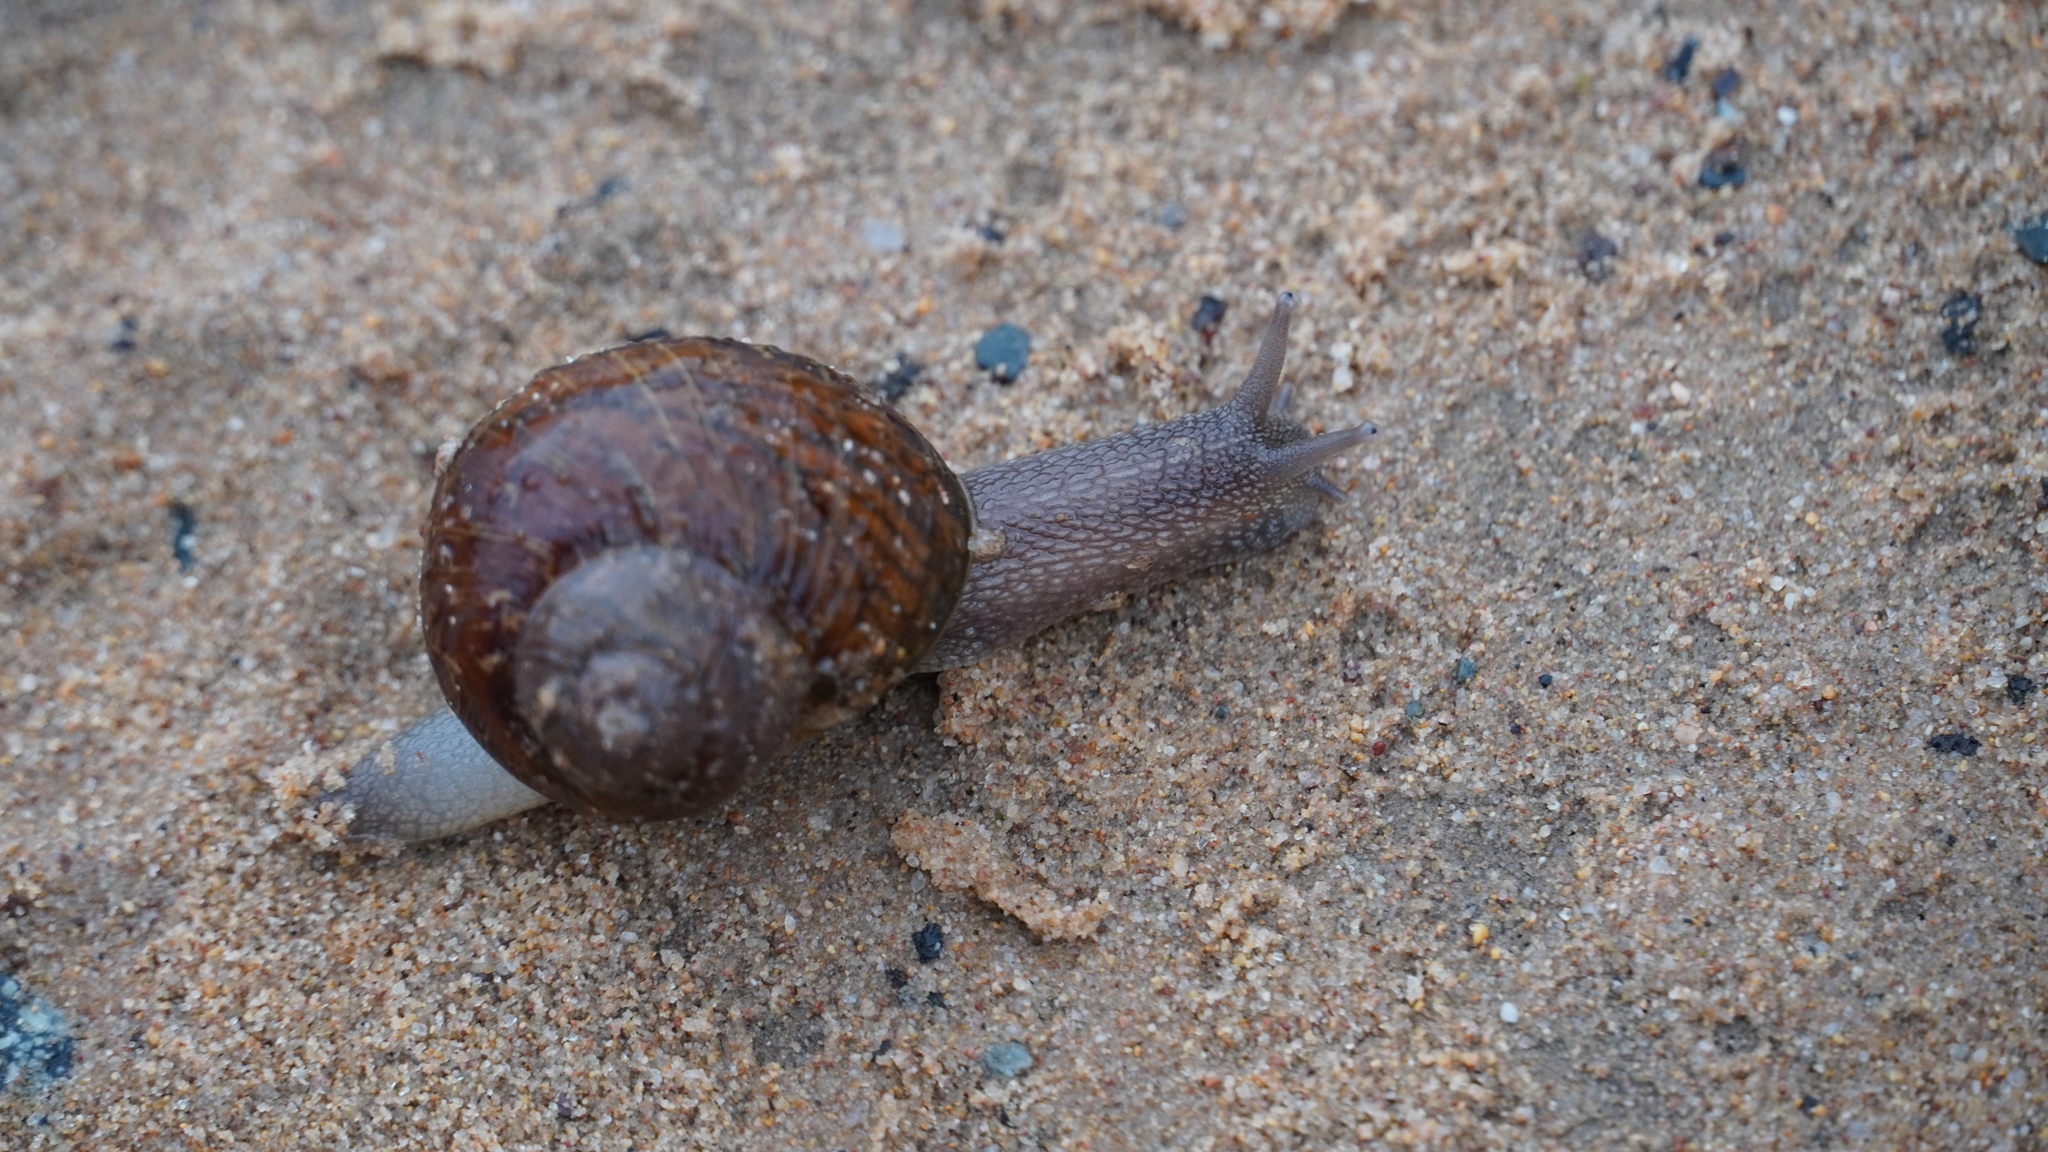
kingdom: Animalia
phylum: Mollusca
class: Gastropoda
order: Stylommatophora
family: Helicidae
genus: Cornu
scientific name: Cornu aspersum
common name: Brown garden snail
